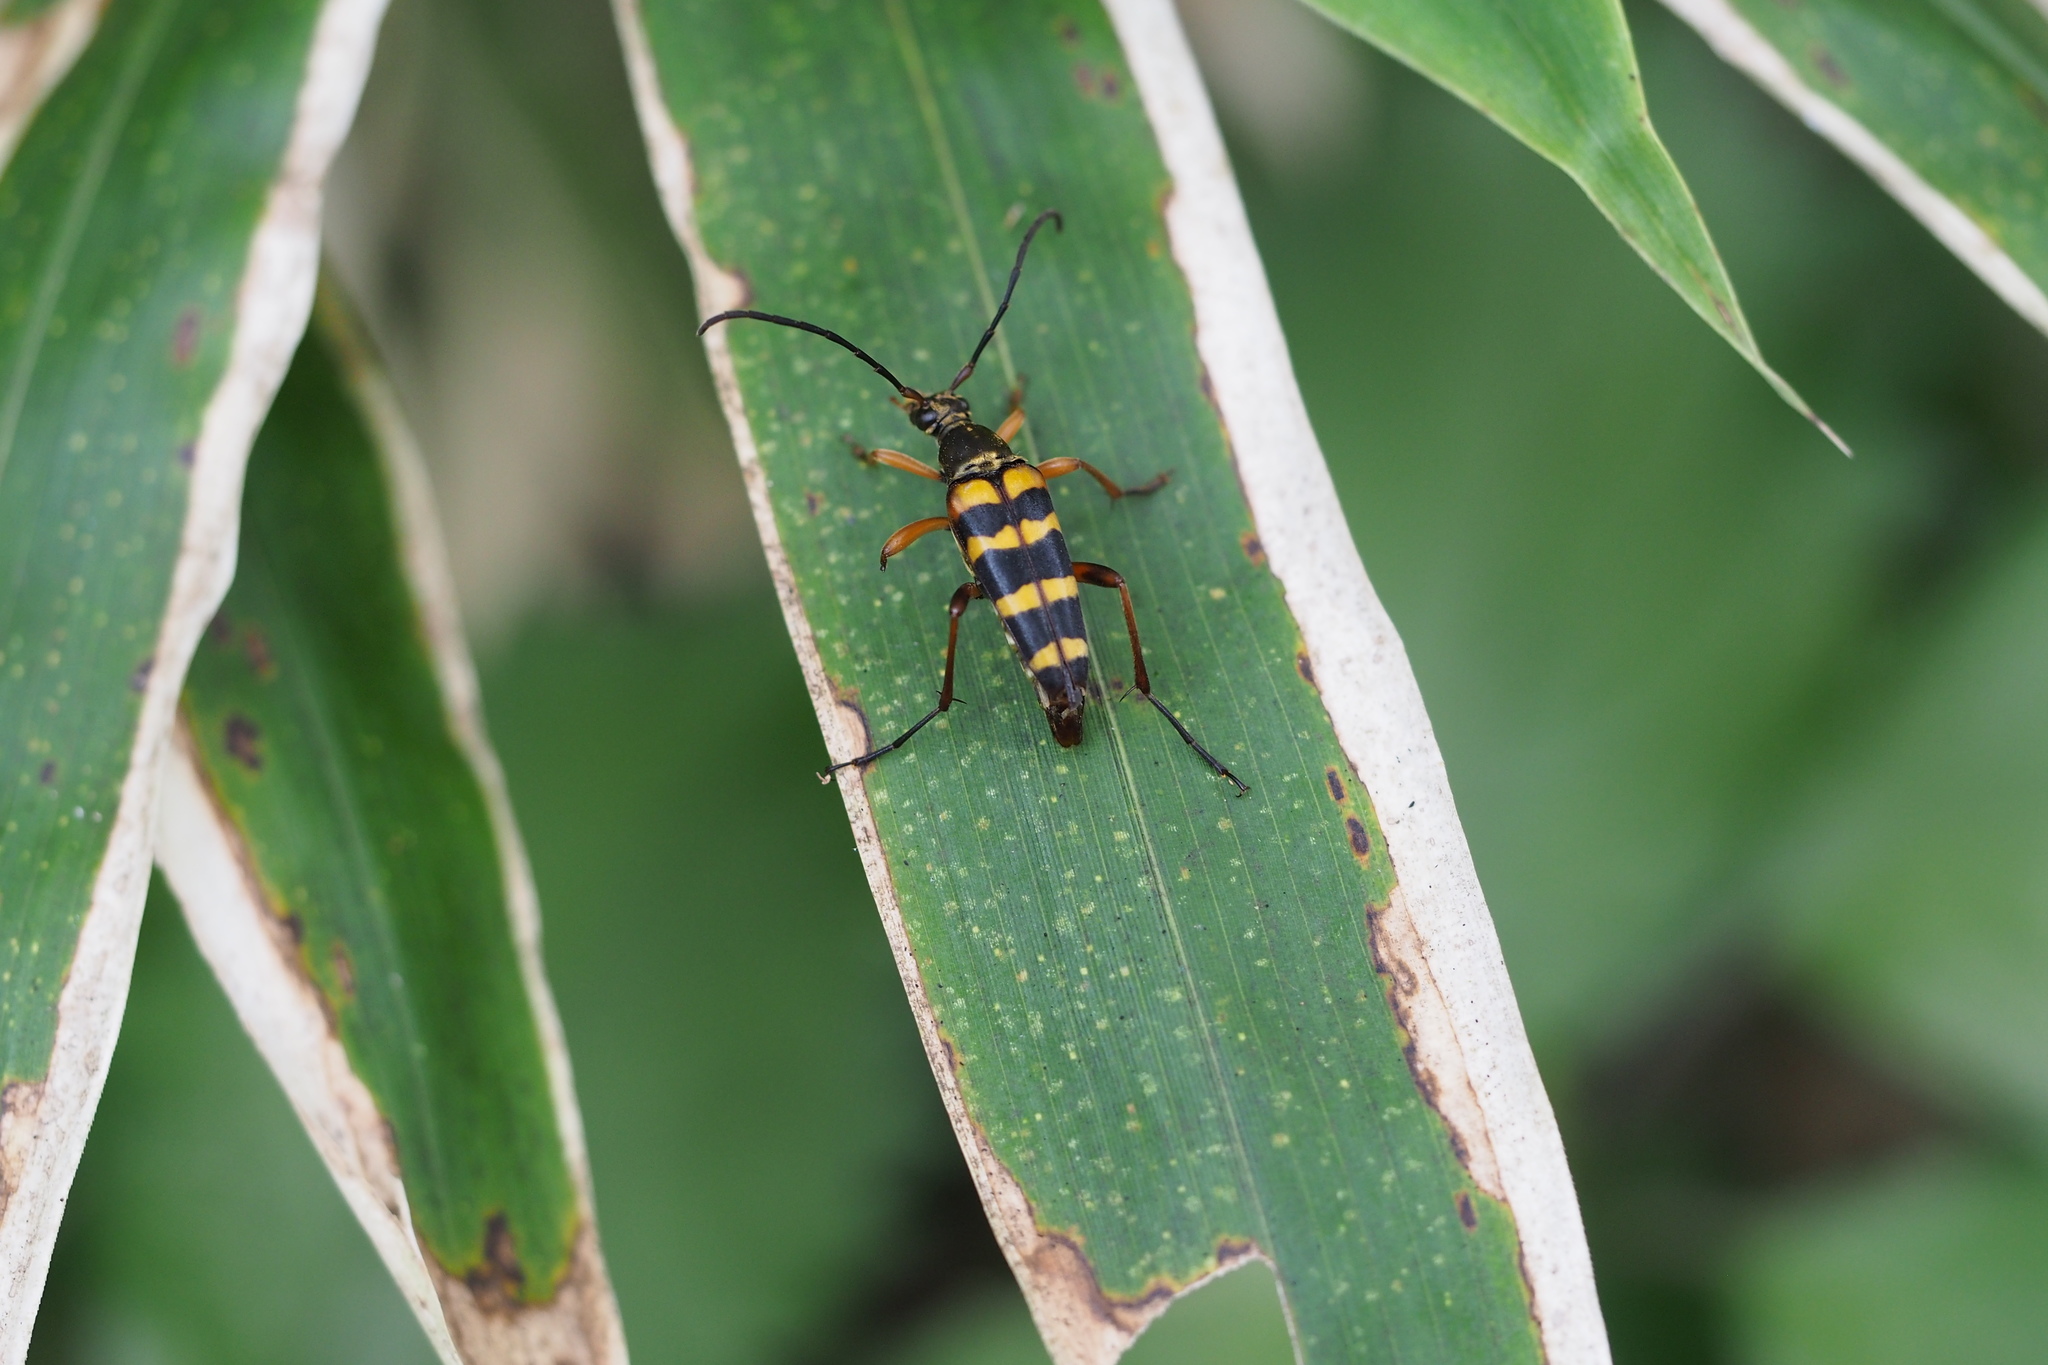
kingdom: Animalia
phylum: Arthropoda
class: Insecta
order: Coleoptera
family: Cerambycidae
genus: Leptura
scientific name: Leptura ochraceofasciata
